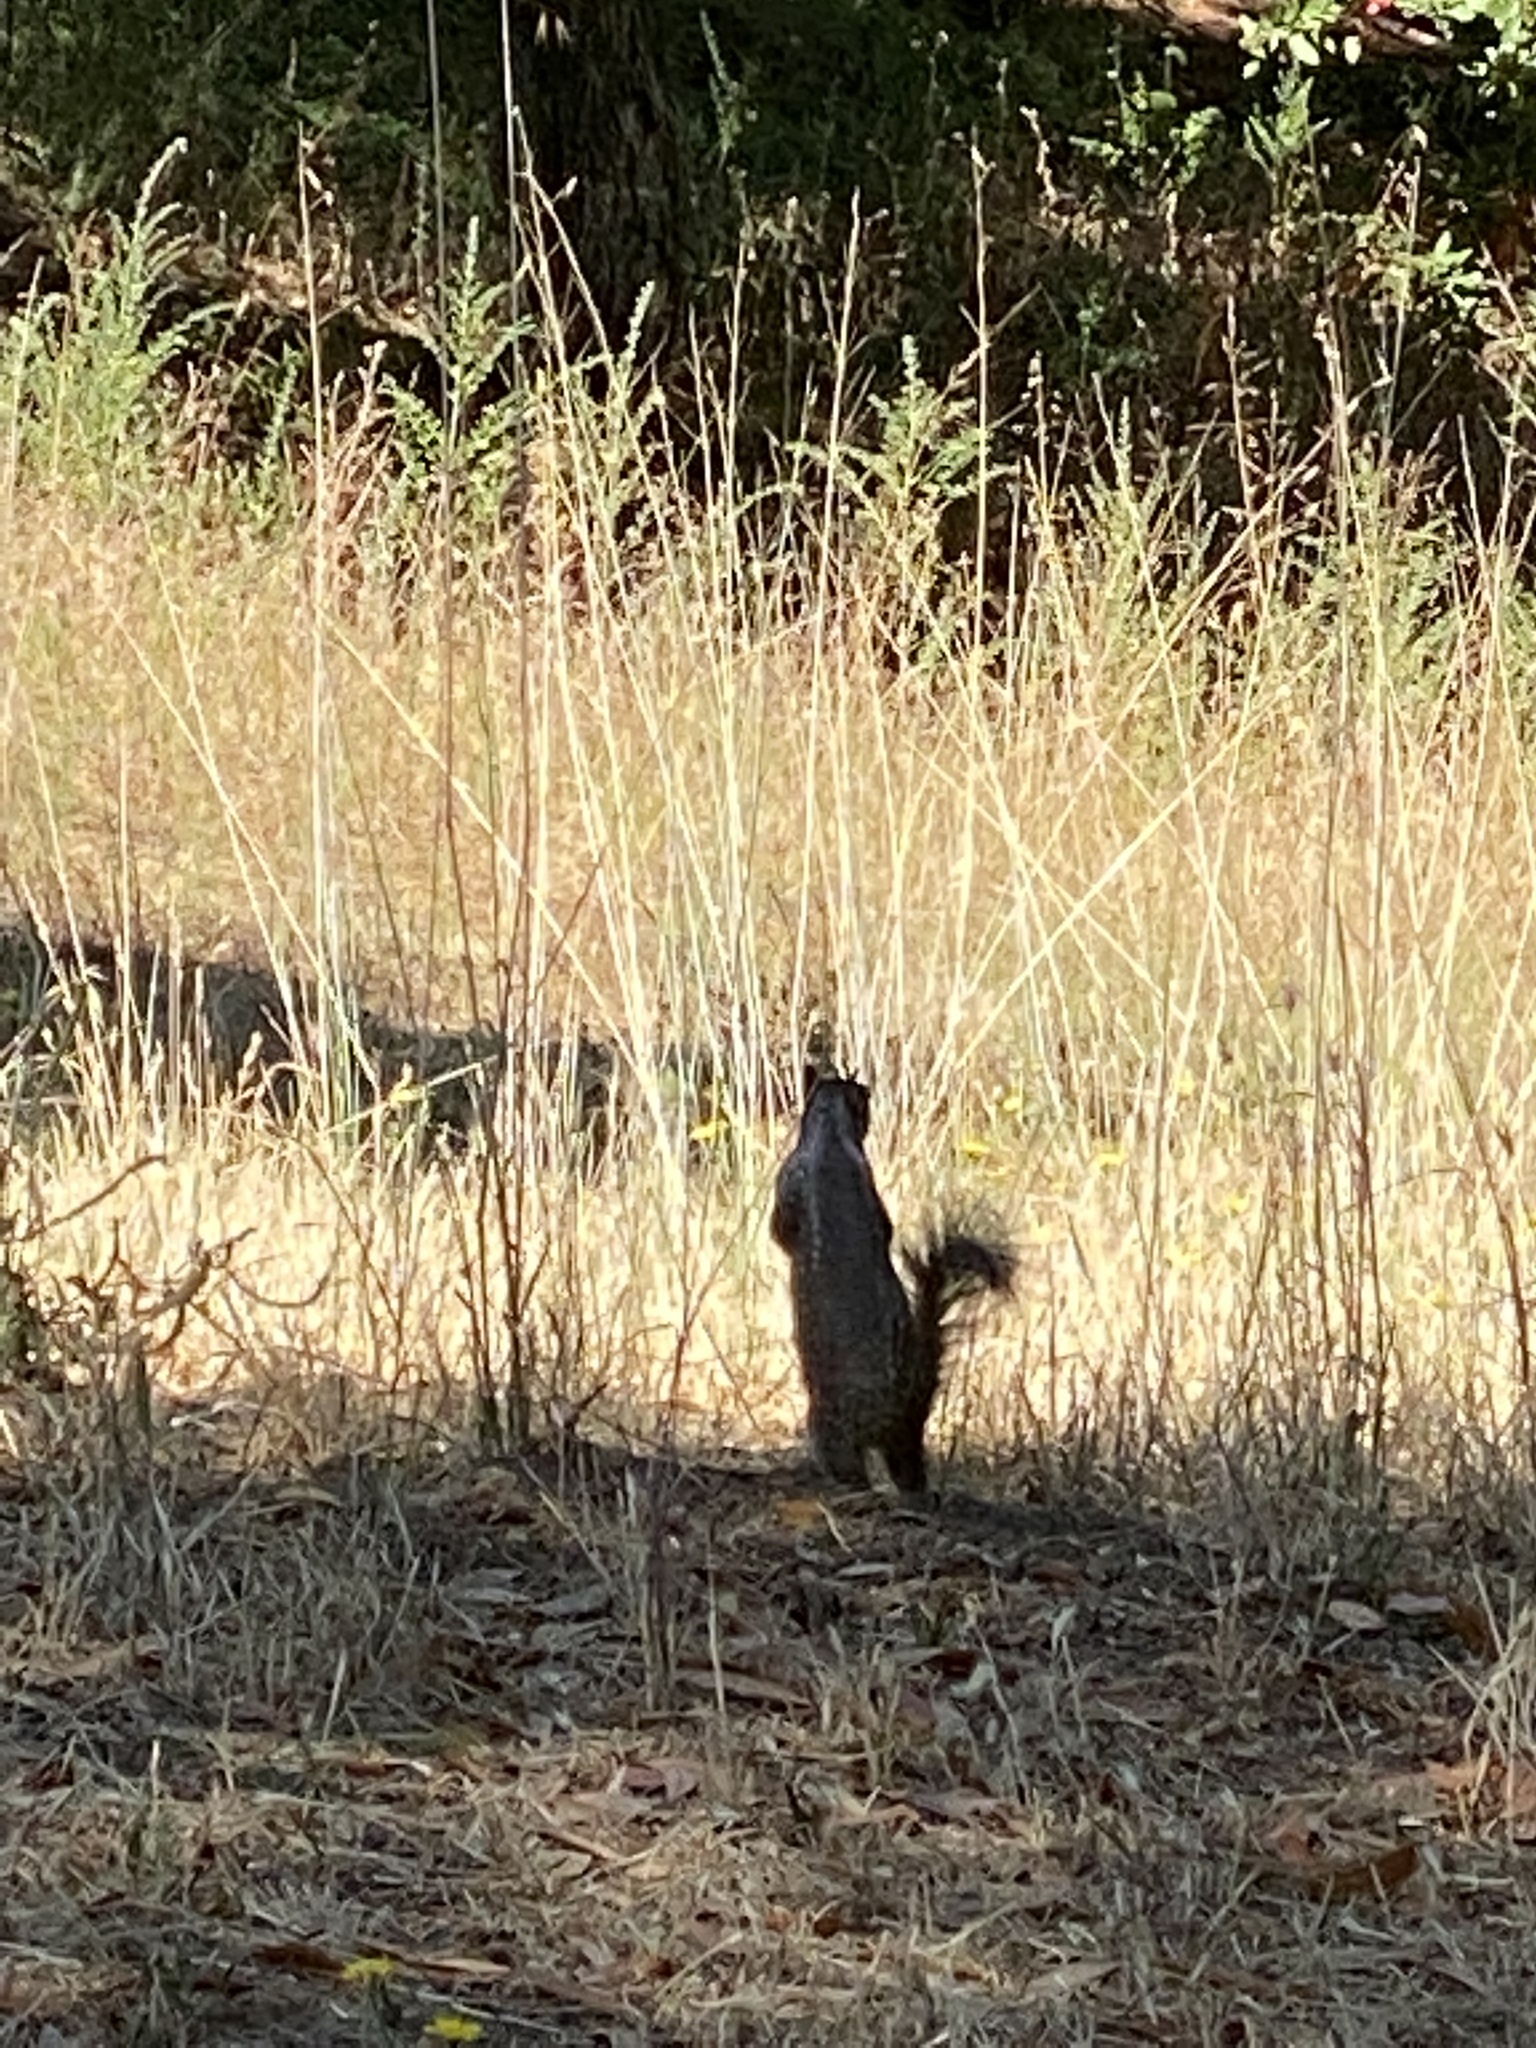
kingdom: Animalia
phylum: Chordata
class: Mammalia
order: Rodentia
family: Sciuridae
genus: Otospermophilus
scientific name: Otospermophilus beecheyi
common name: California ground squirrel
